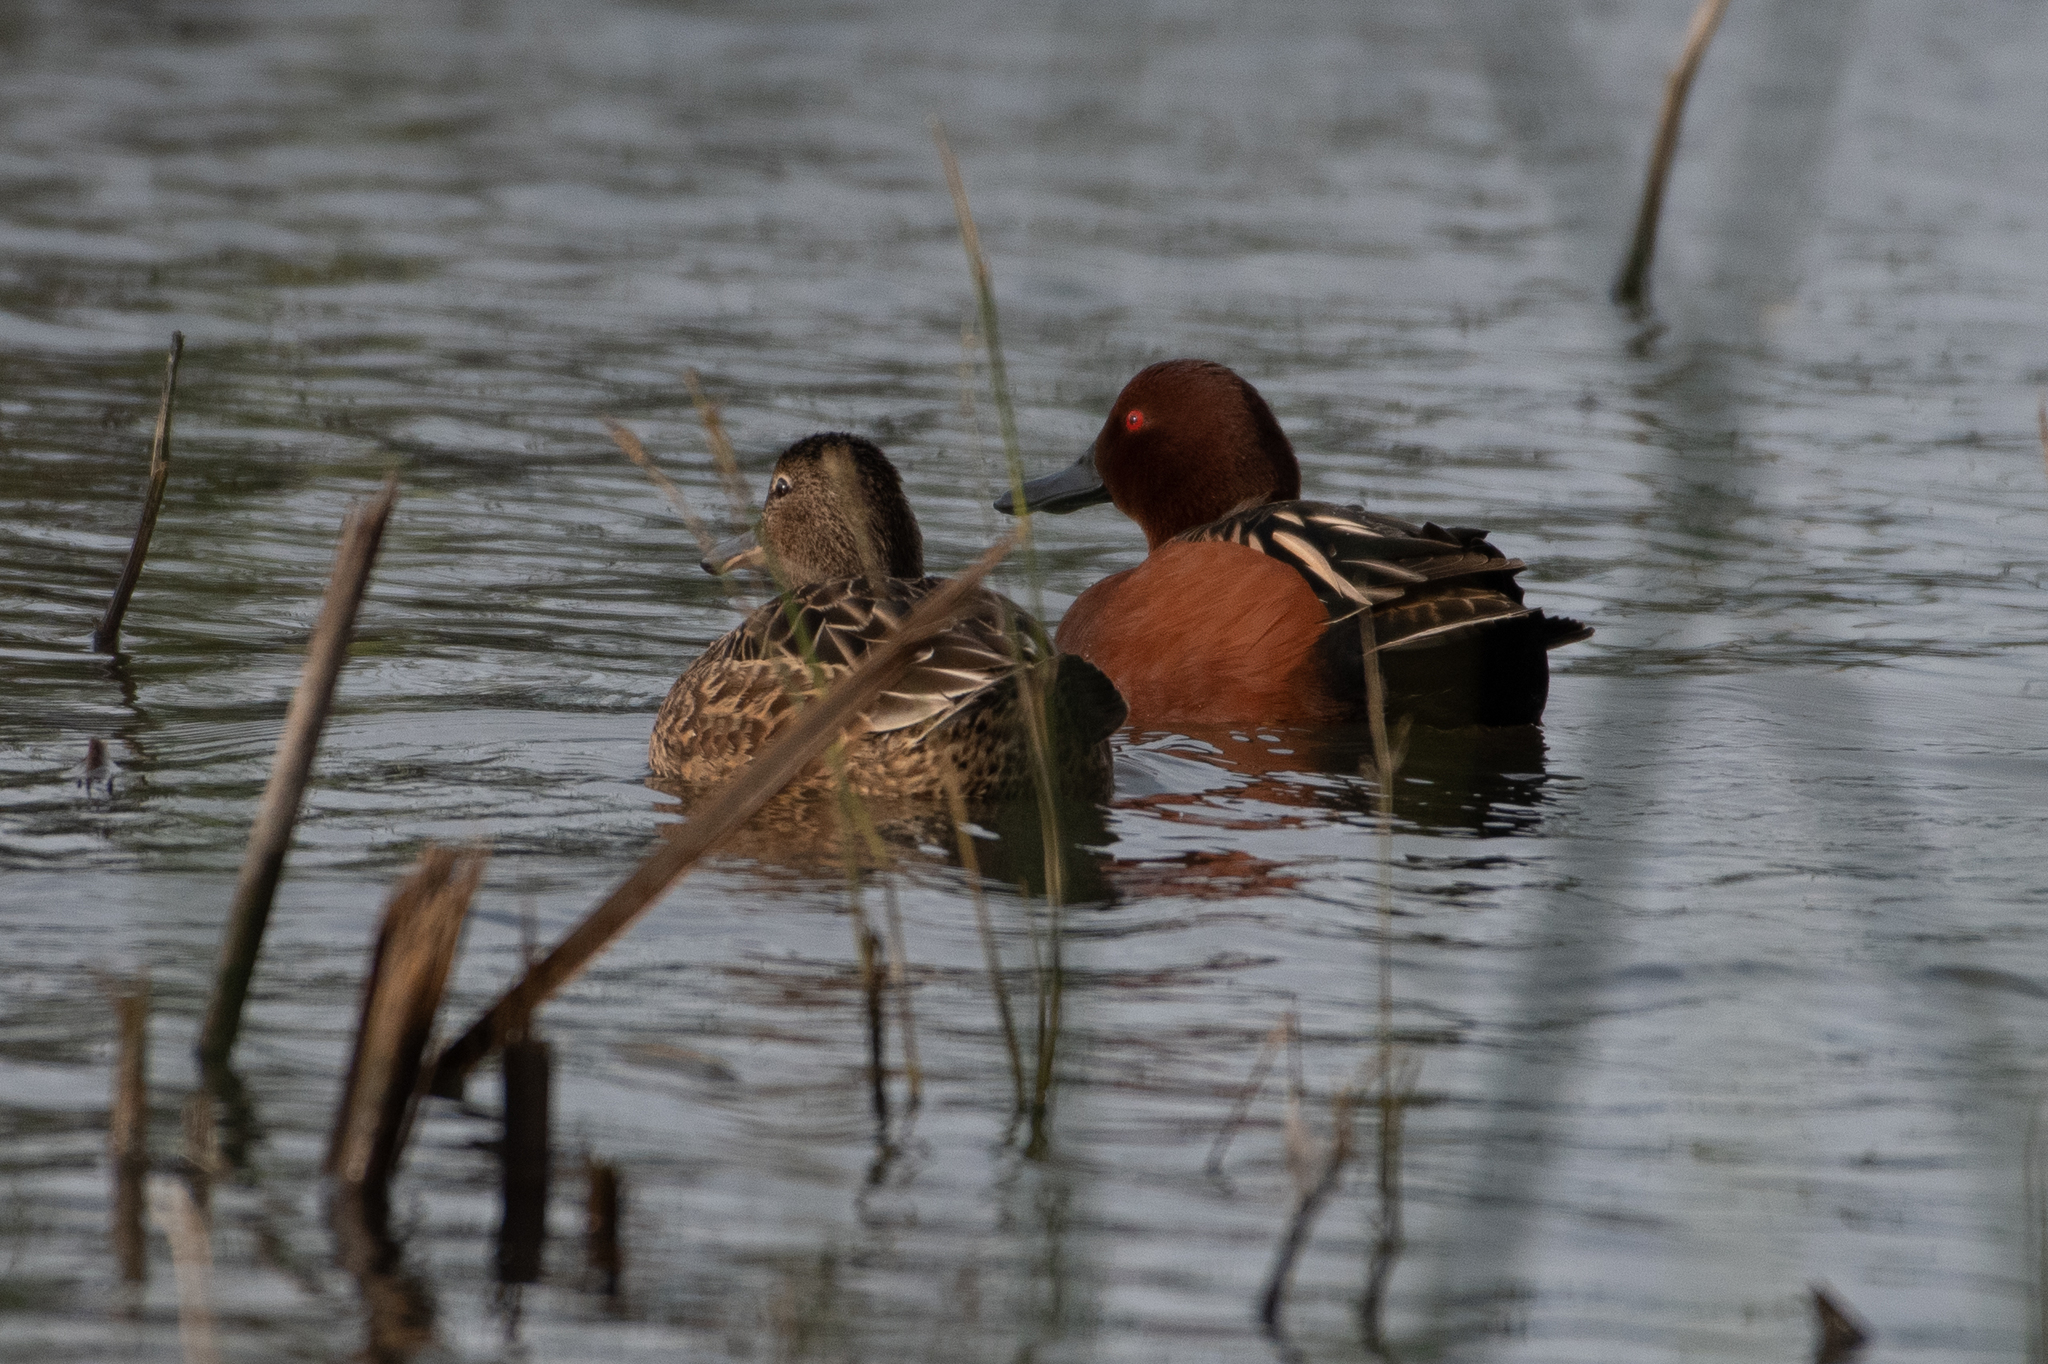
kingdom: Animalia
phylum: Chordata
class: Aves
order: Anseriformes
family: Anatidae
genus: Spatula
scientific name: Spatula cyanoptera
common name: Cinnamon teal
